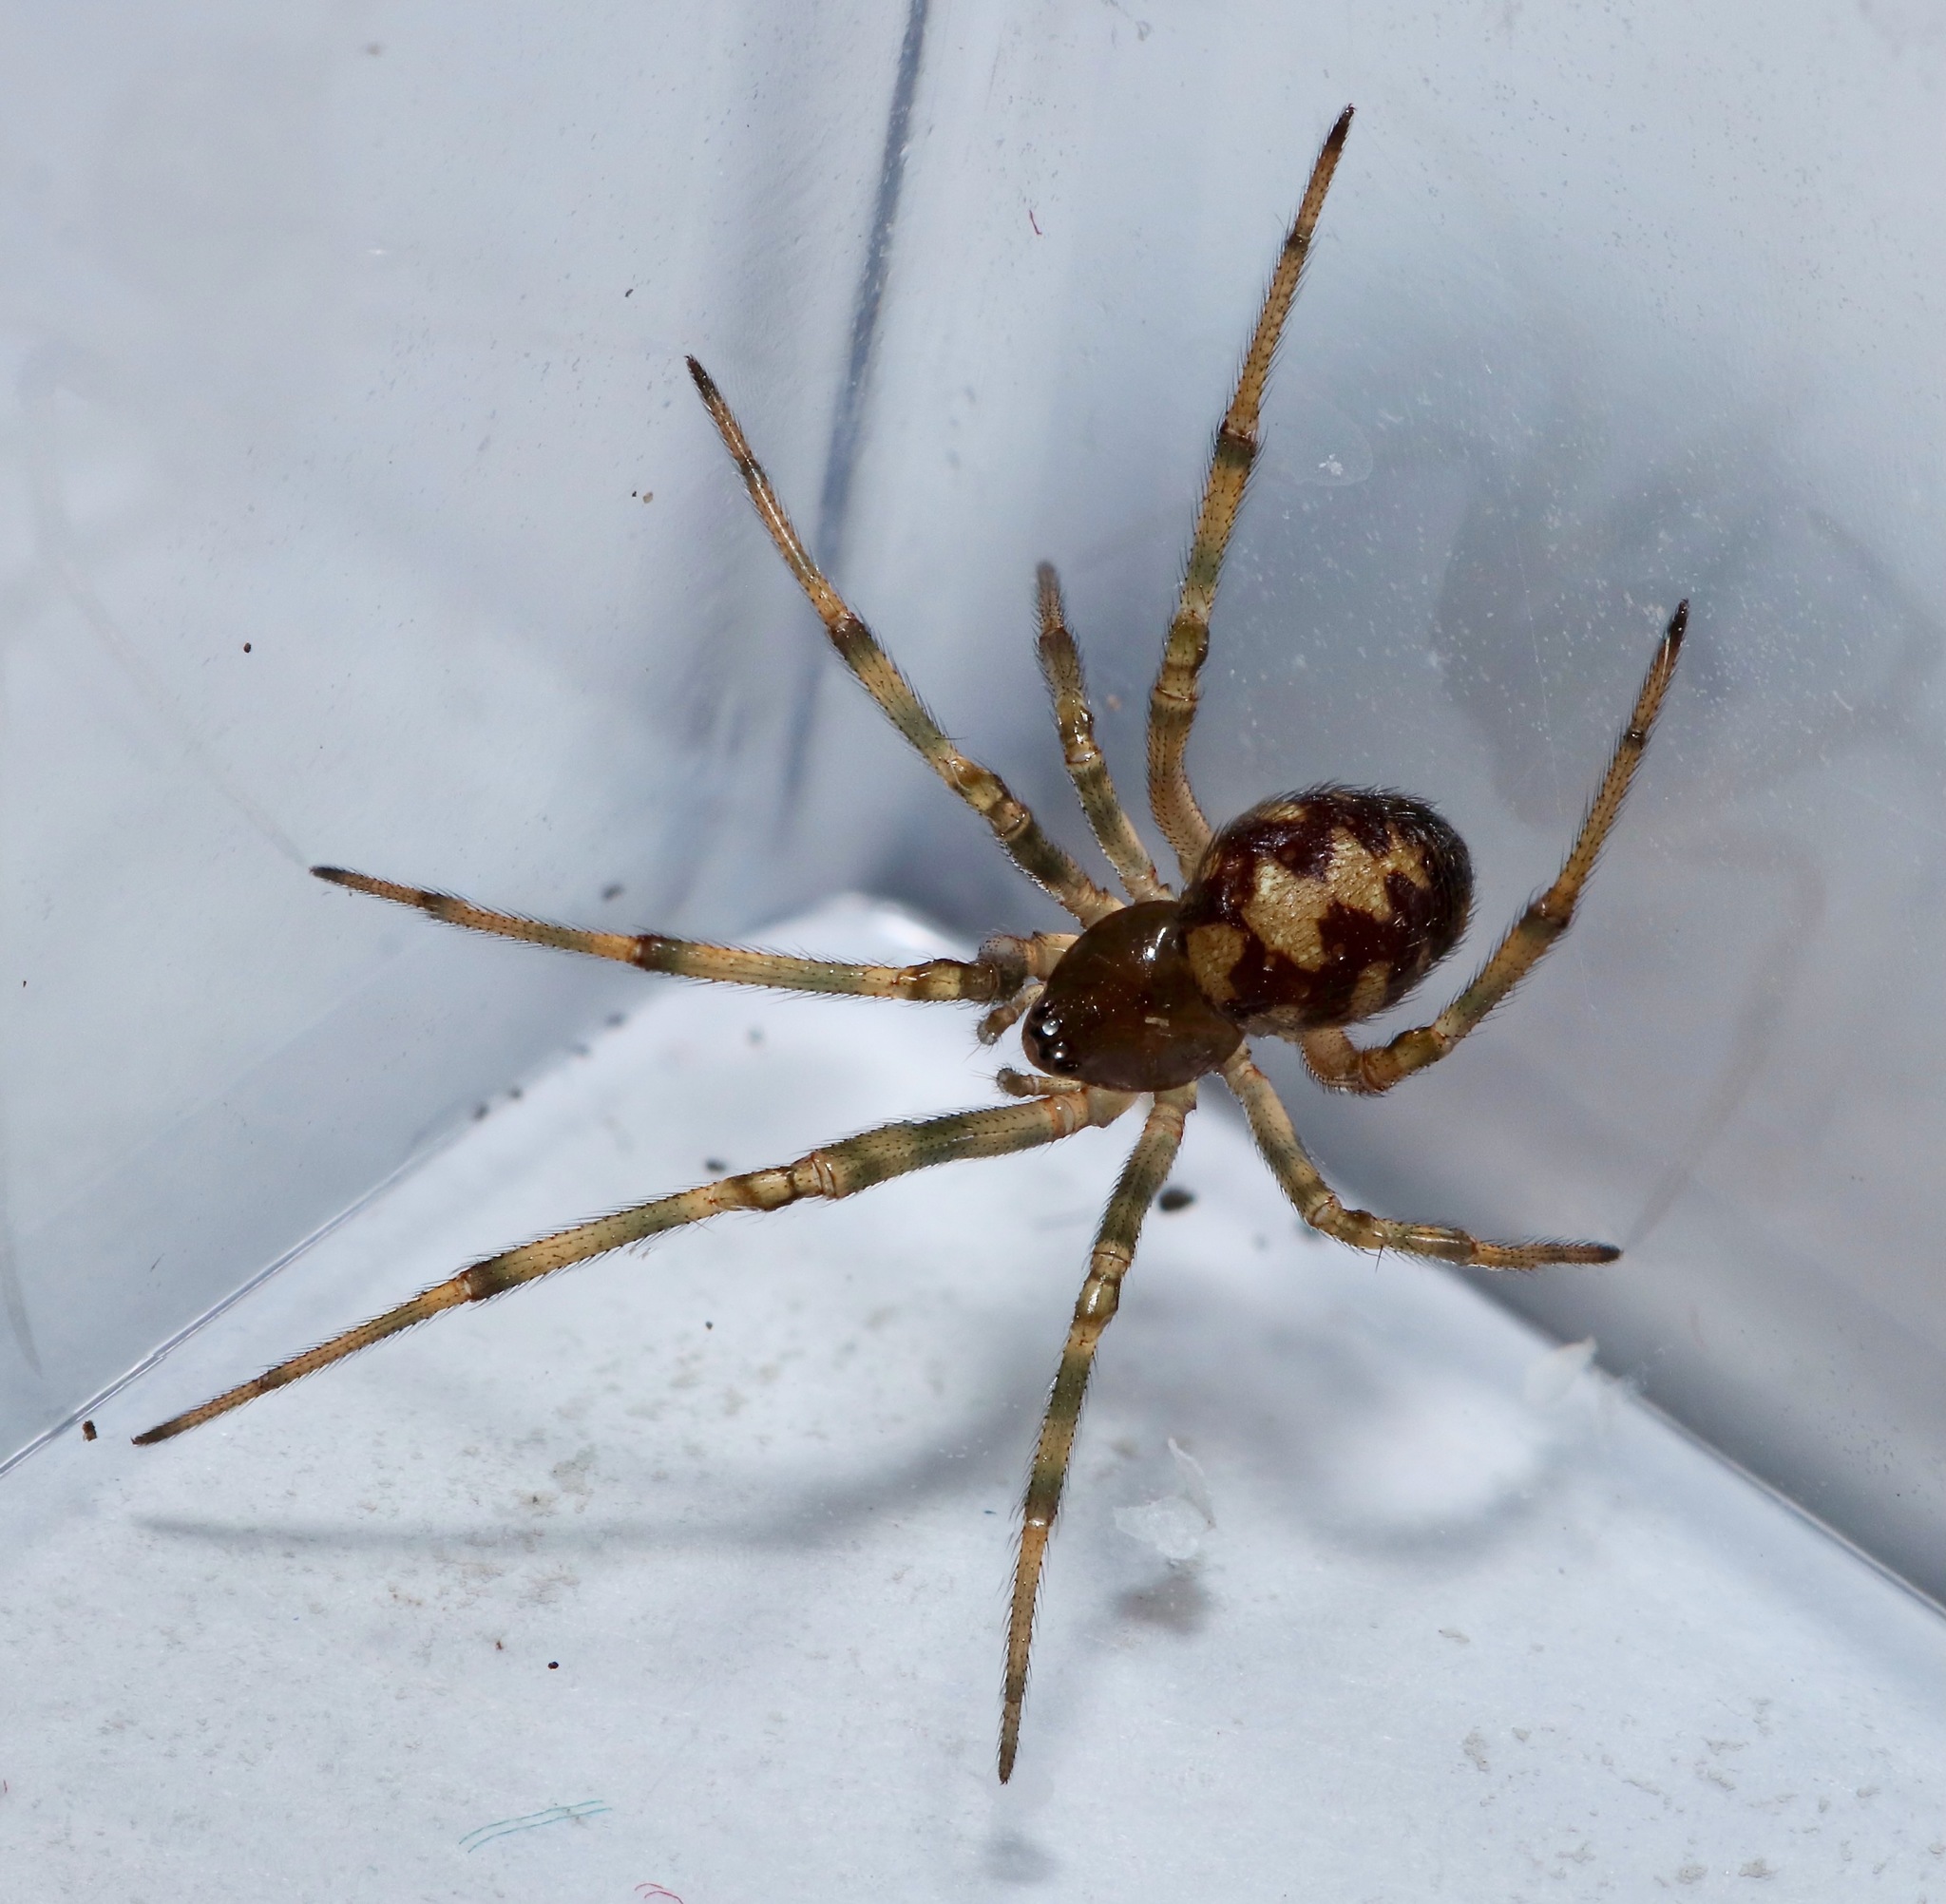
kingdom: Animalia
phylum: Arthropoda
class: Arachnida
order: Araneae
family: Theridiidae
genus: Steatoda
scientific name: Steatoda triangulosa
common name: Triangulate bud spider
